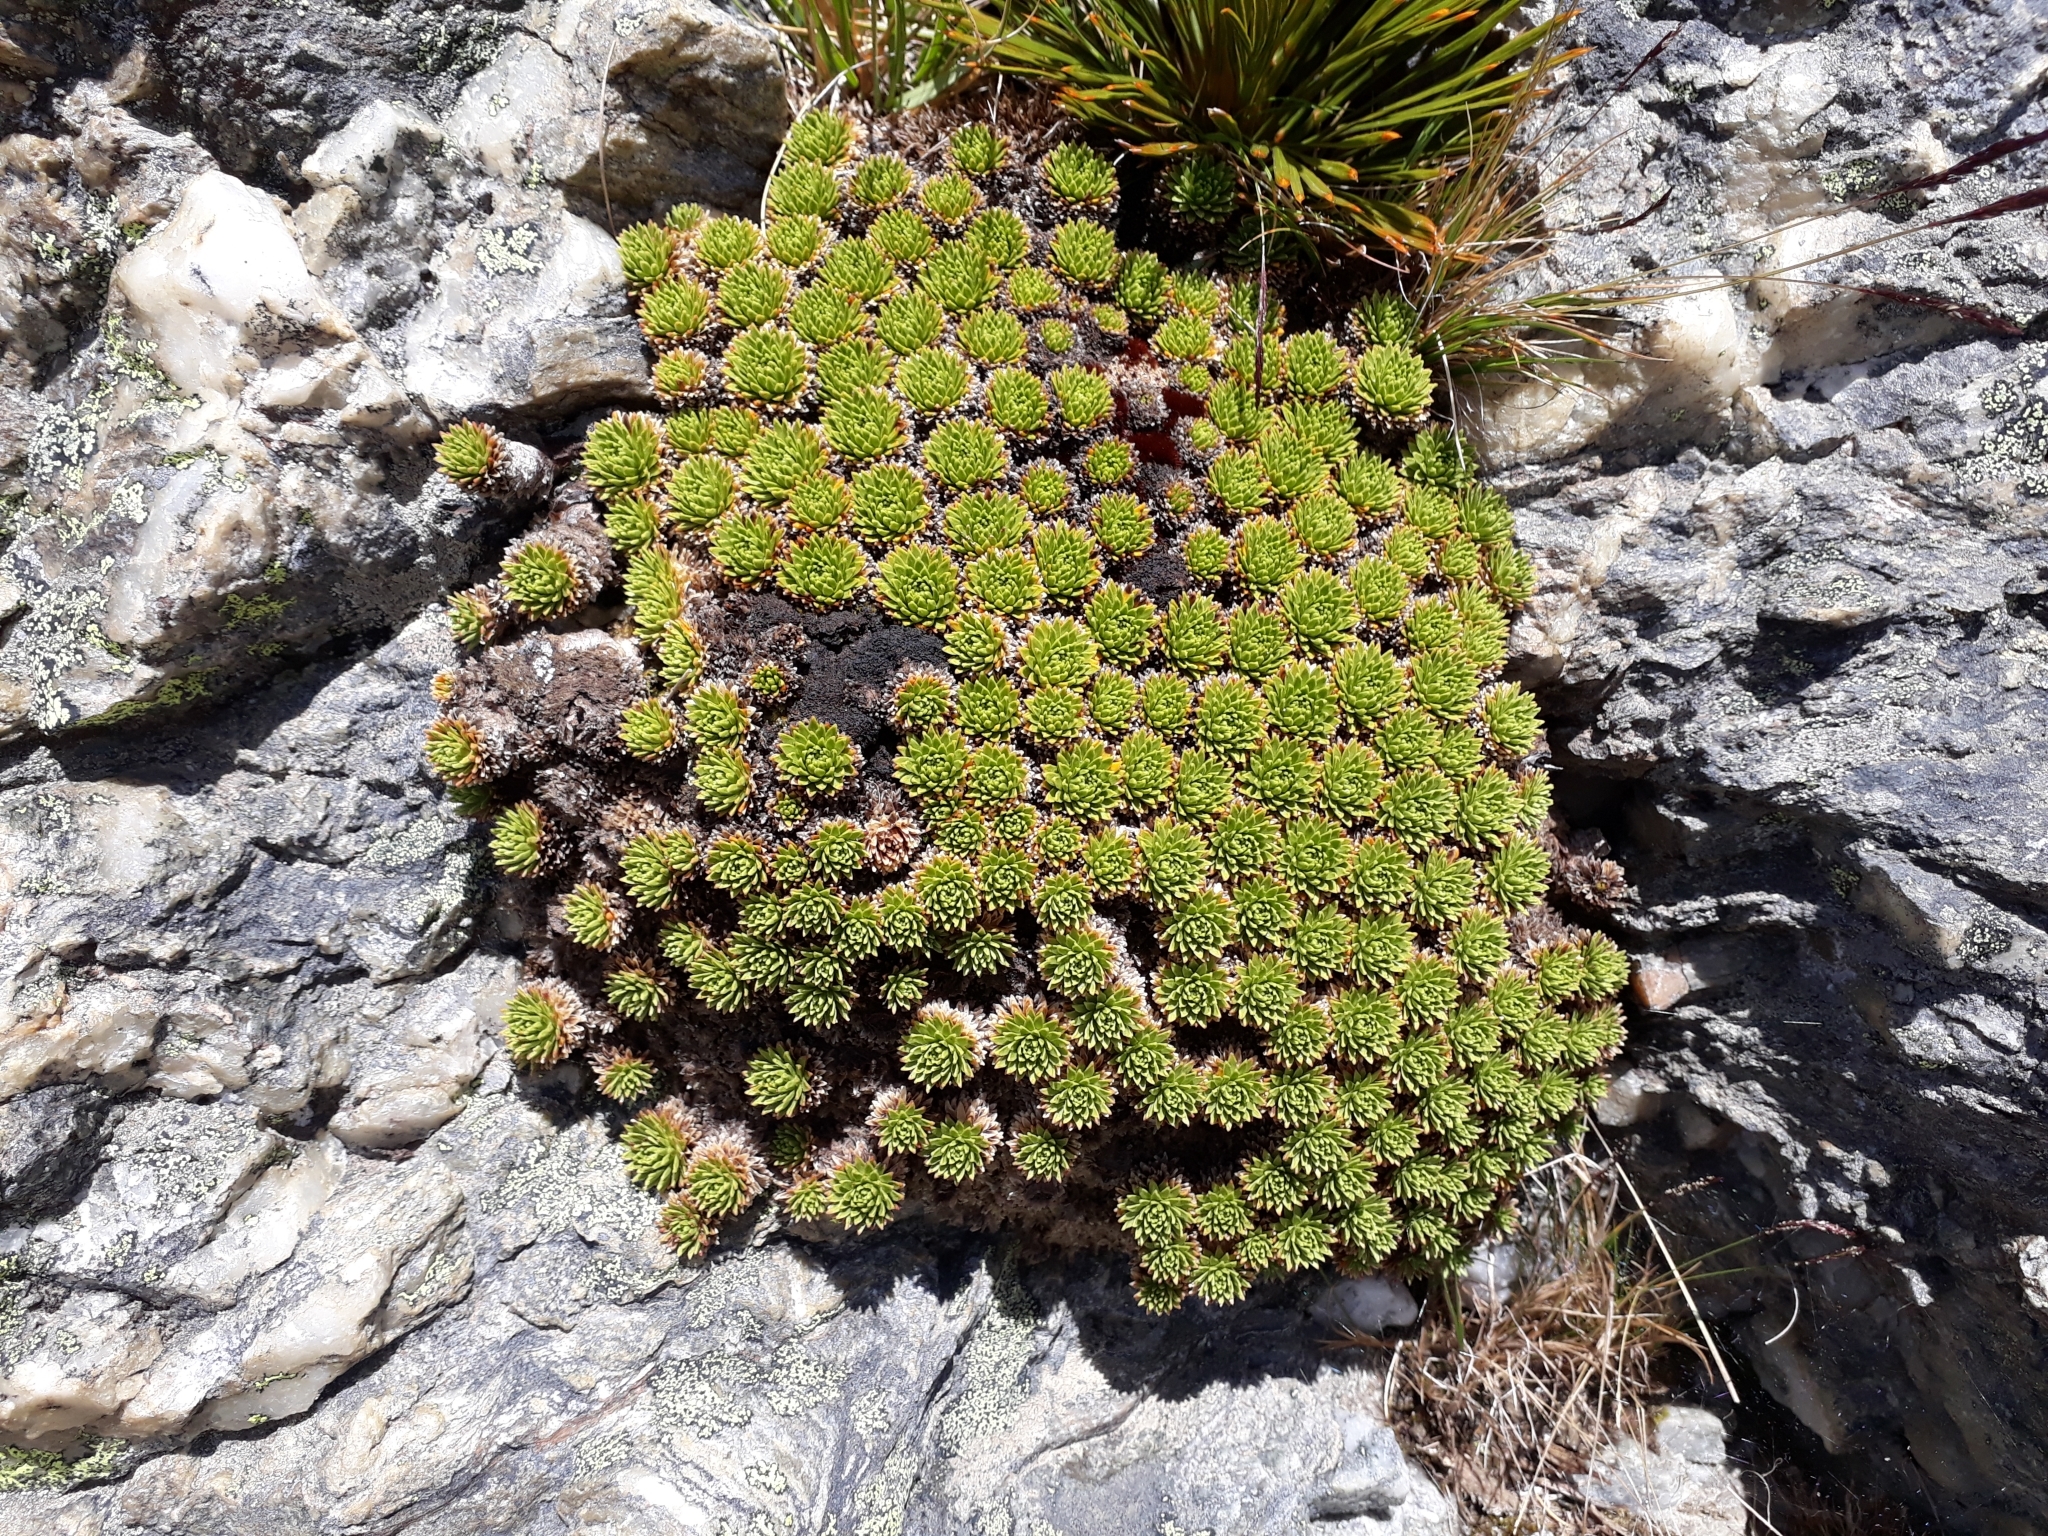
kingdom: Plantae
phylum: Tracheophyta
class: Magnoliopsida
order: Caryophyllales
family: Montiaceae
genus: Hectorella
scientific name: Hectorella caespitosa
